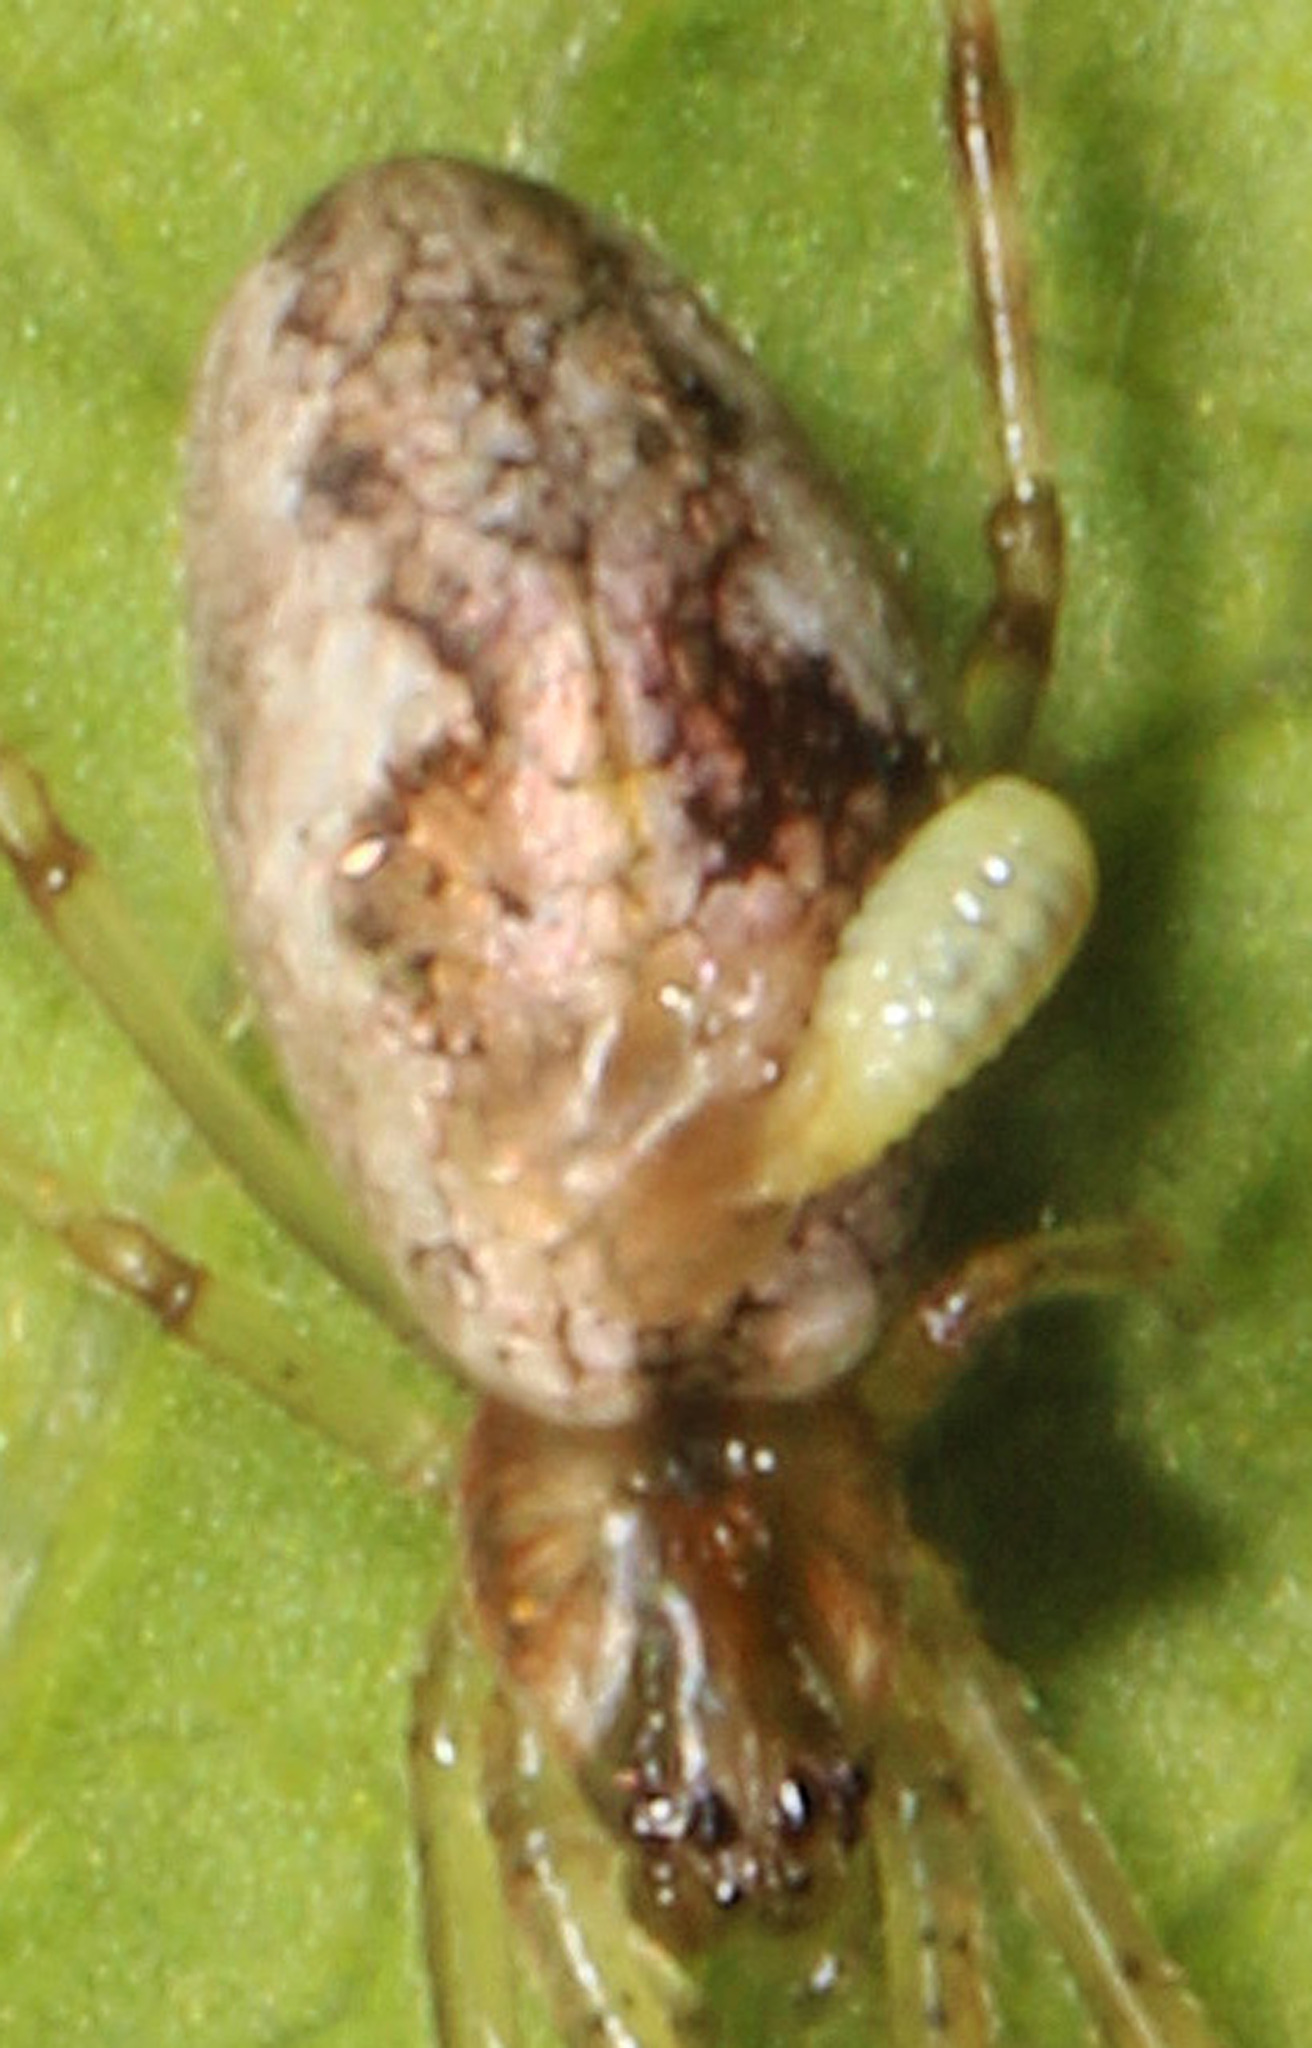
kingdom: Animalia
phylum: Arthropoda
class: Insecta
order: Hymenoptera
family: Ichneumonidae
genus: Polysphincta
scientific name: Polysphincta
